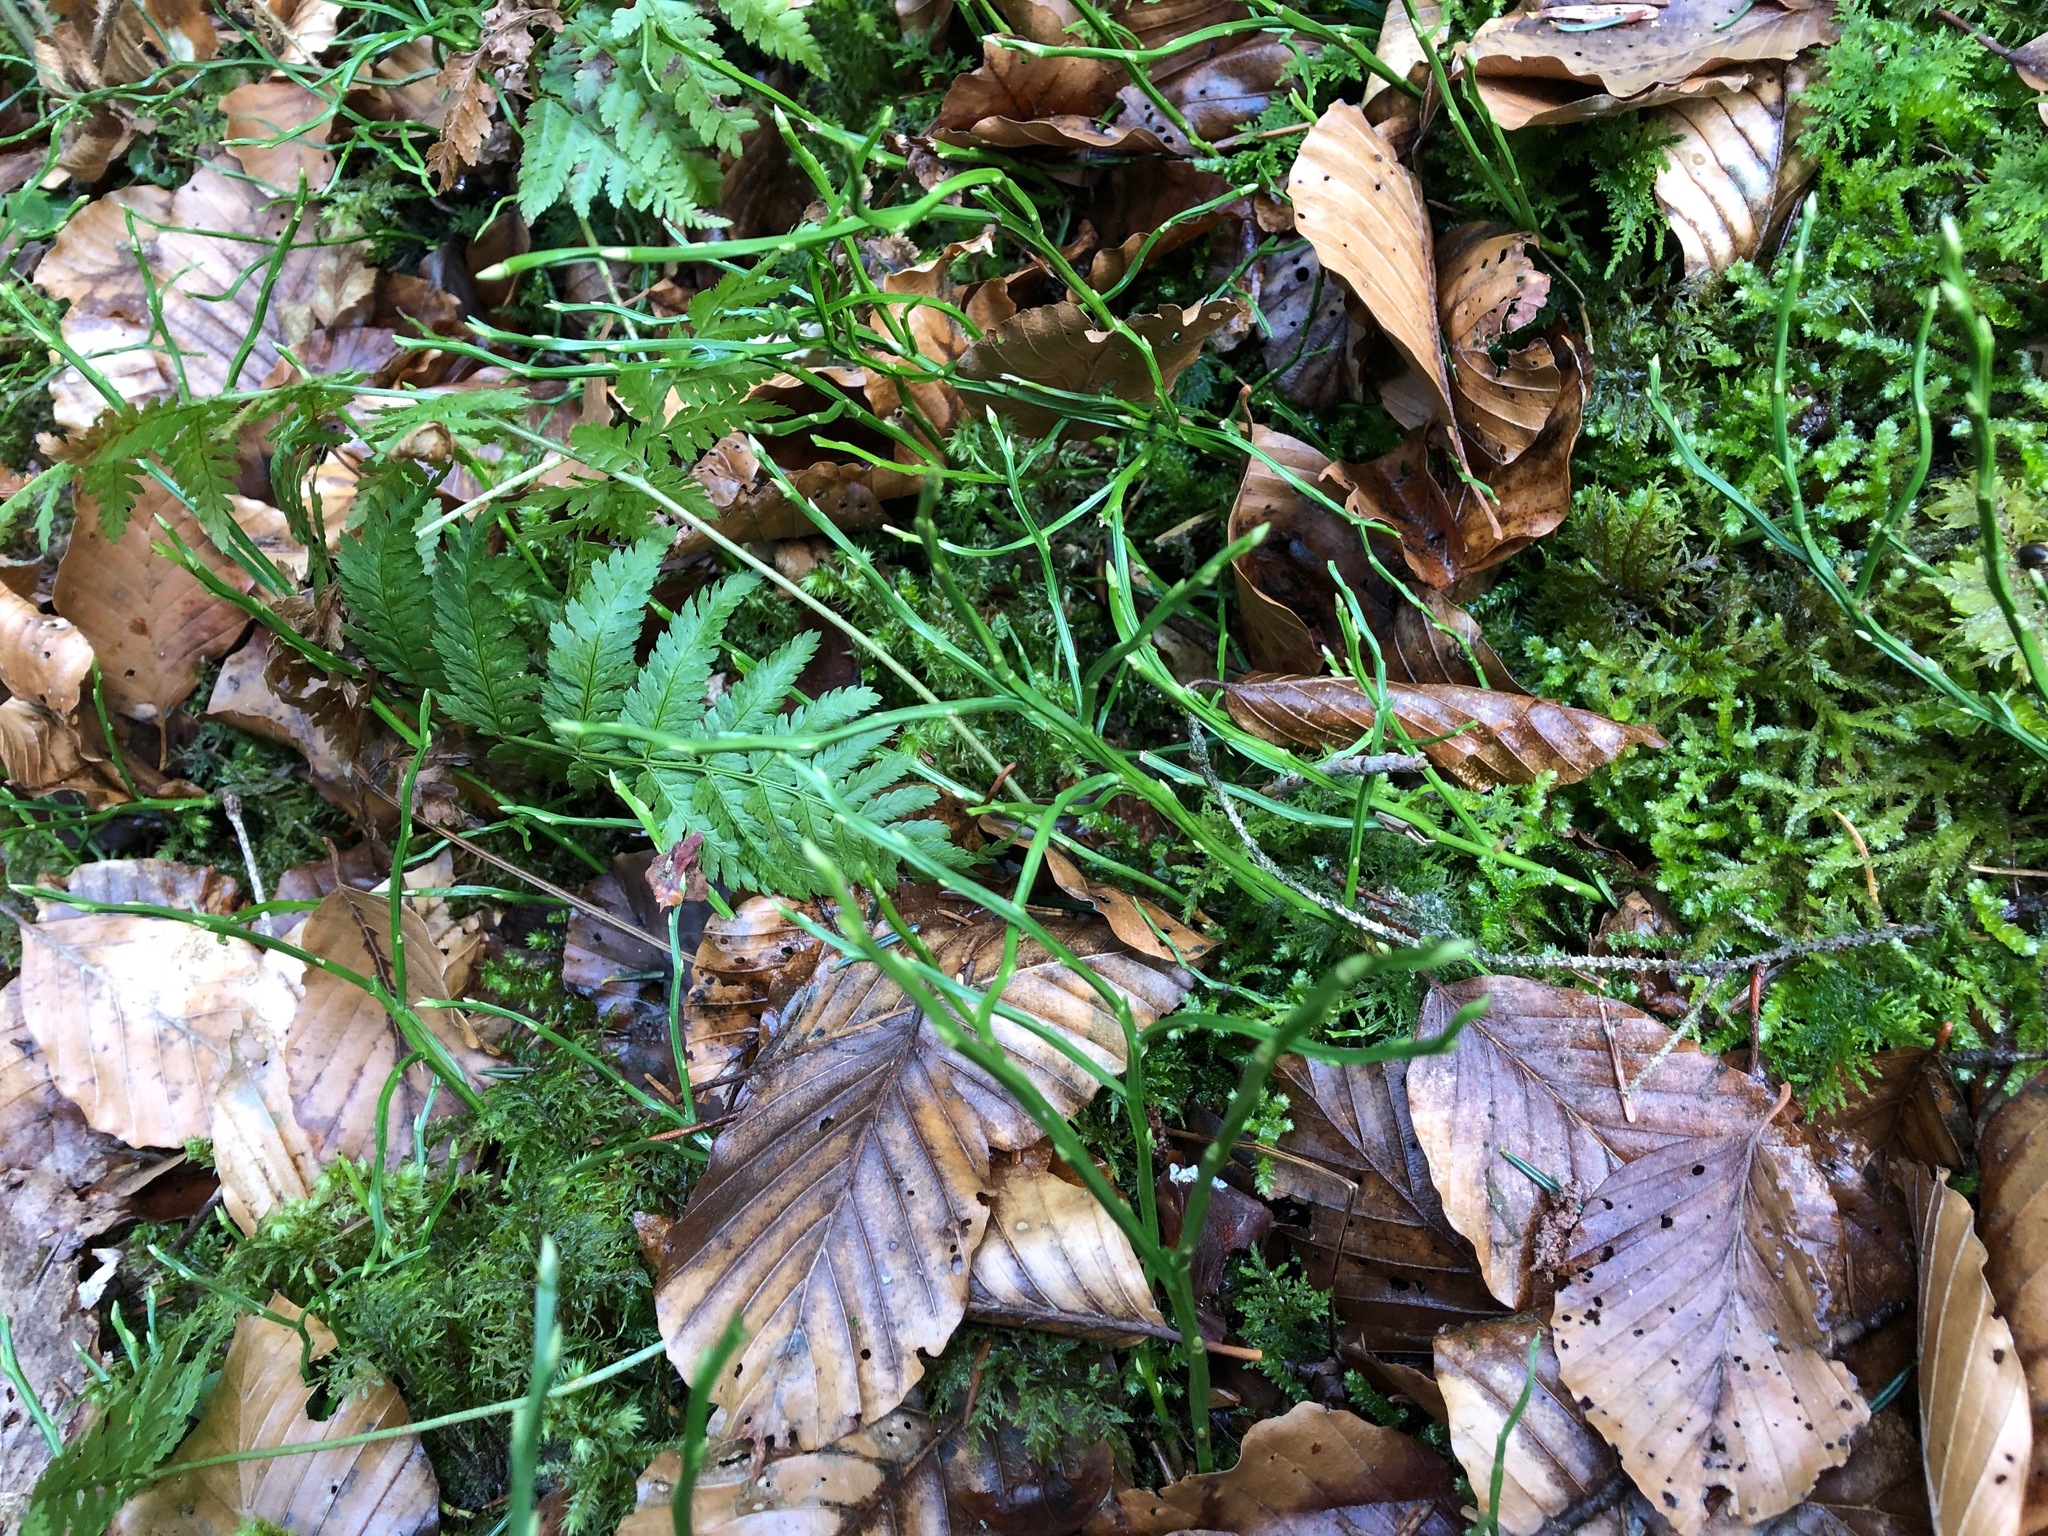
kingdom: Plantae
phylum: Tracheophyta
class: Magnoliopsida
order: Ericales
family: Ericaceae
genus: Vaccinium
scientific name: Vaccinium myrtillus
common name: Bilberry
